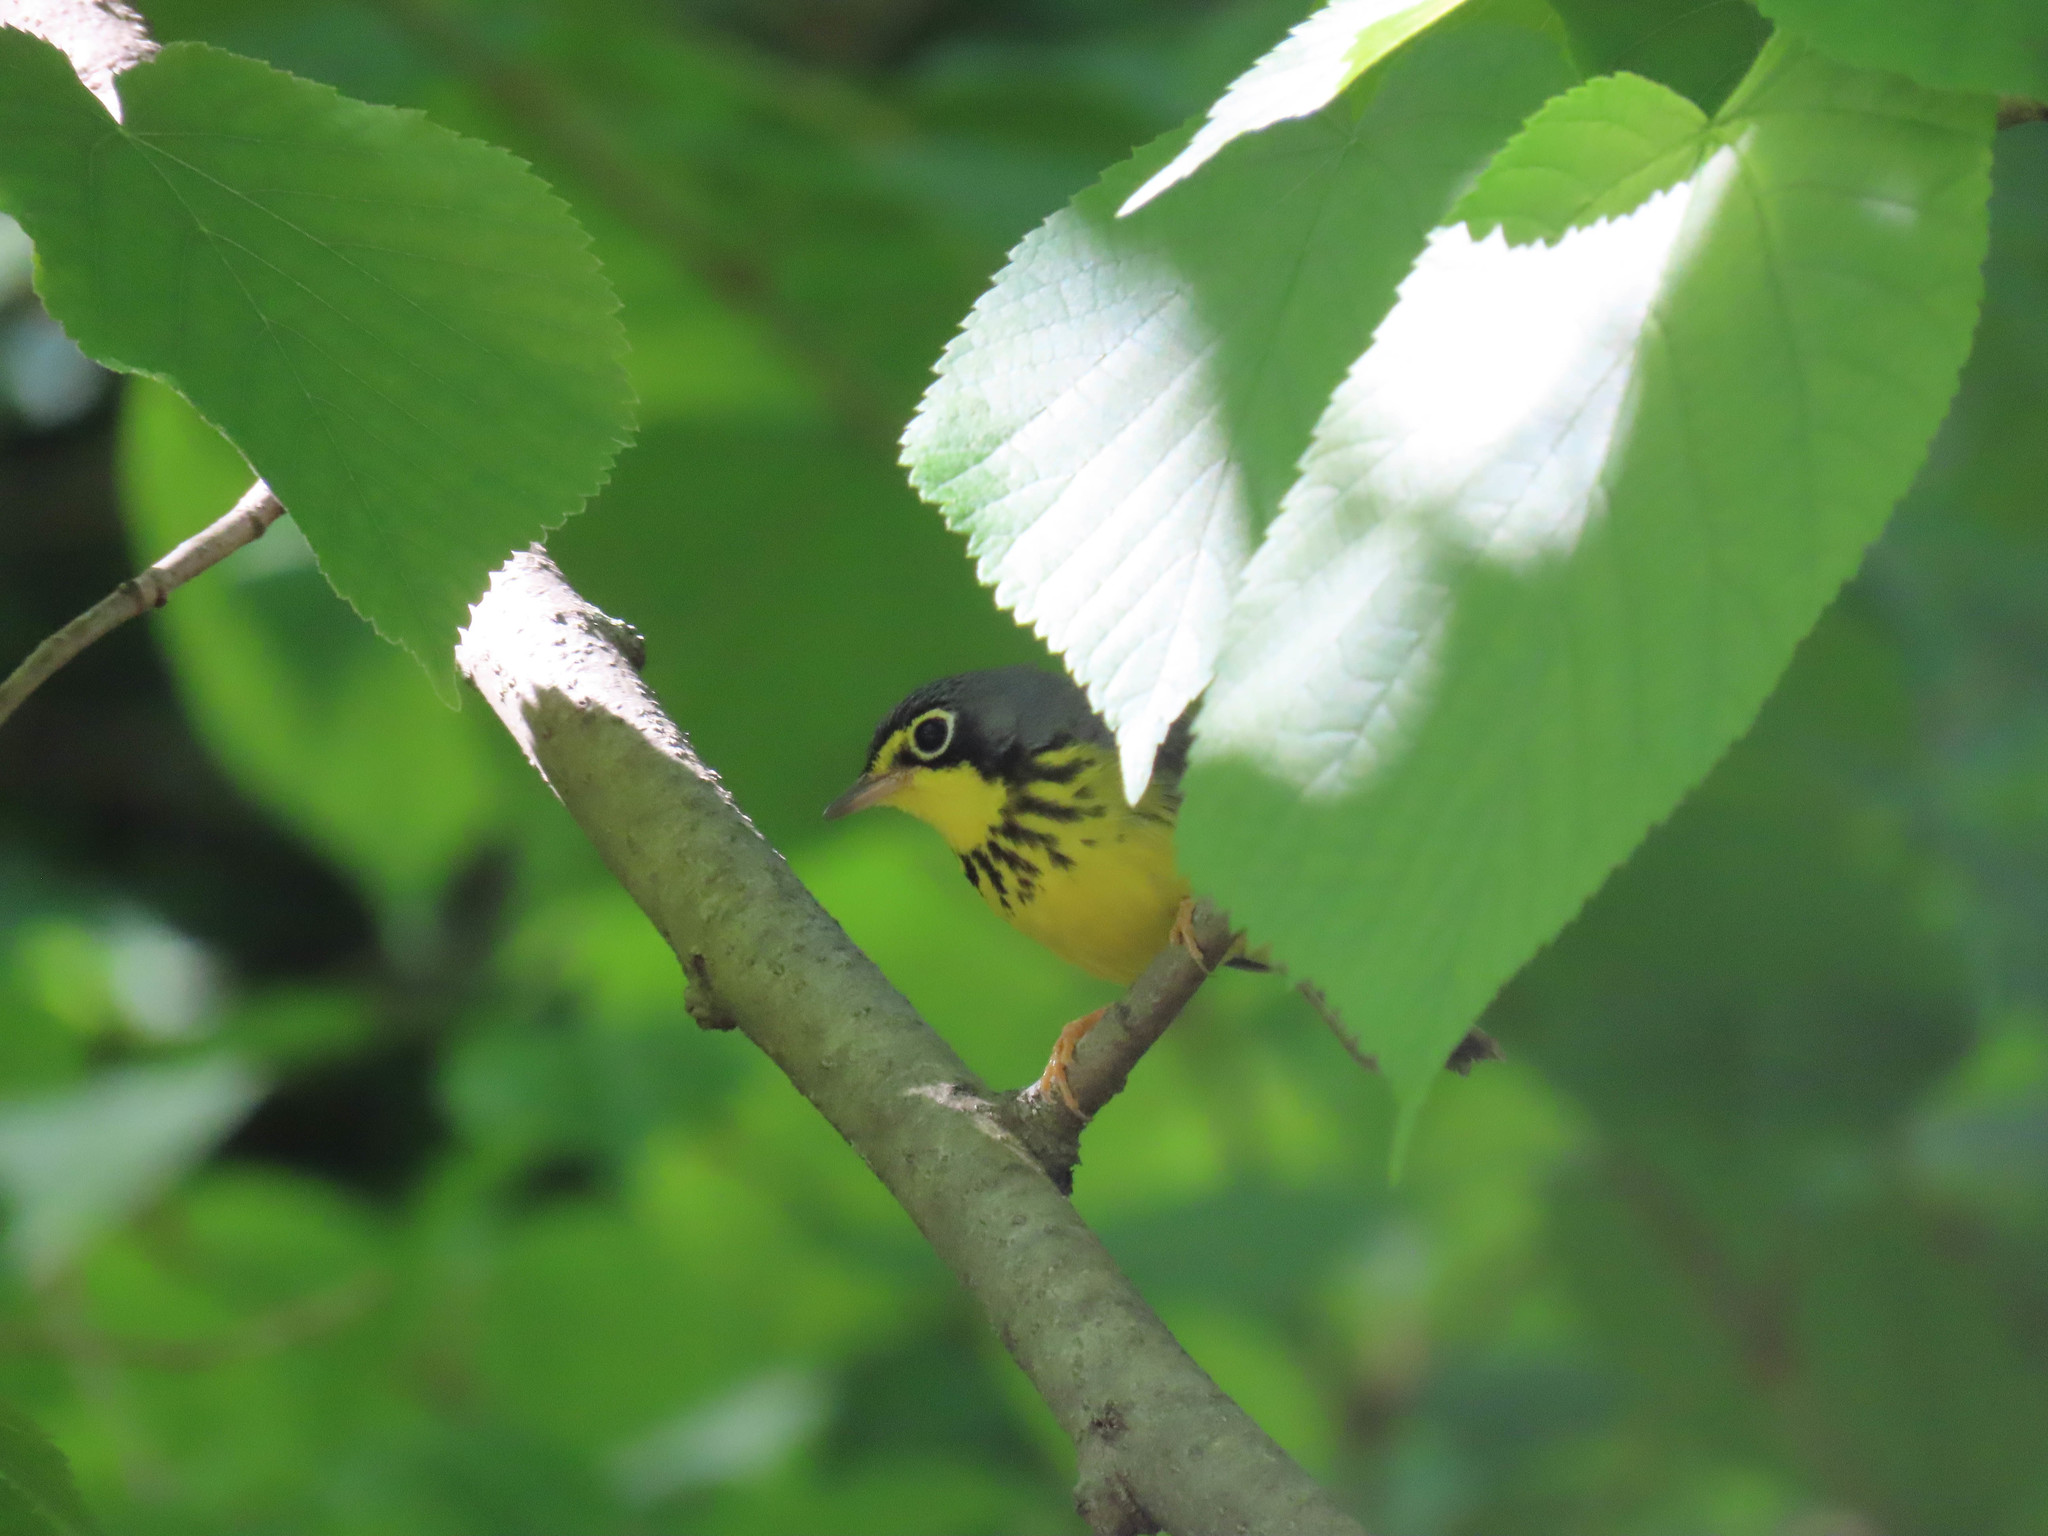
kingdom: Animalia
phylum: Chordata
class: Aves
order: Passeriformes
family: Parulidae
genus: Cardellina
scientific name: Cardellina canadensis
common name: Canada warbler
